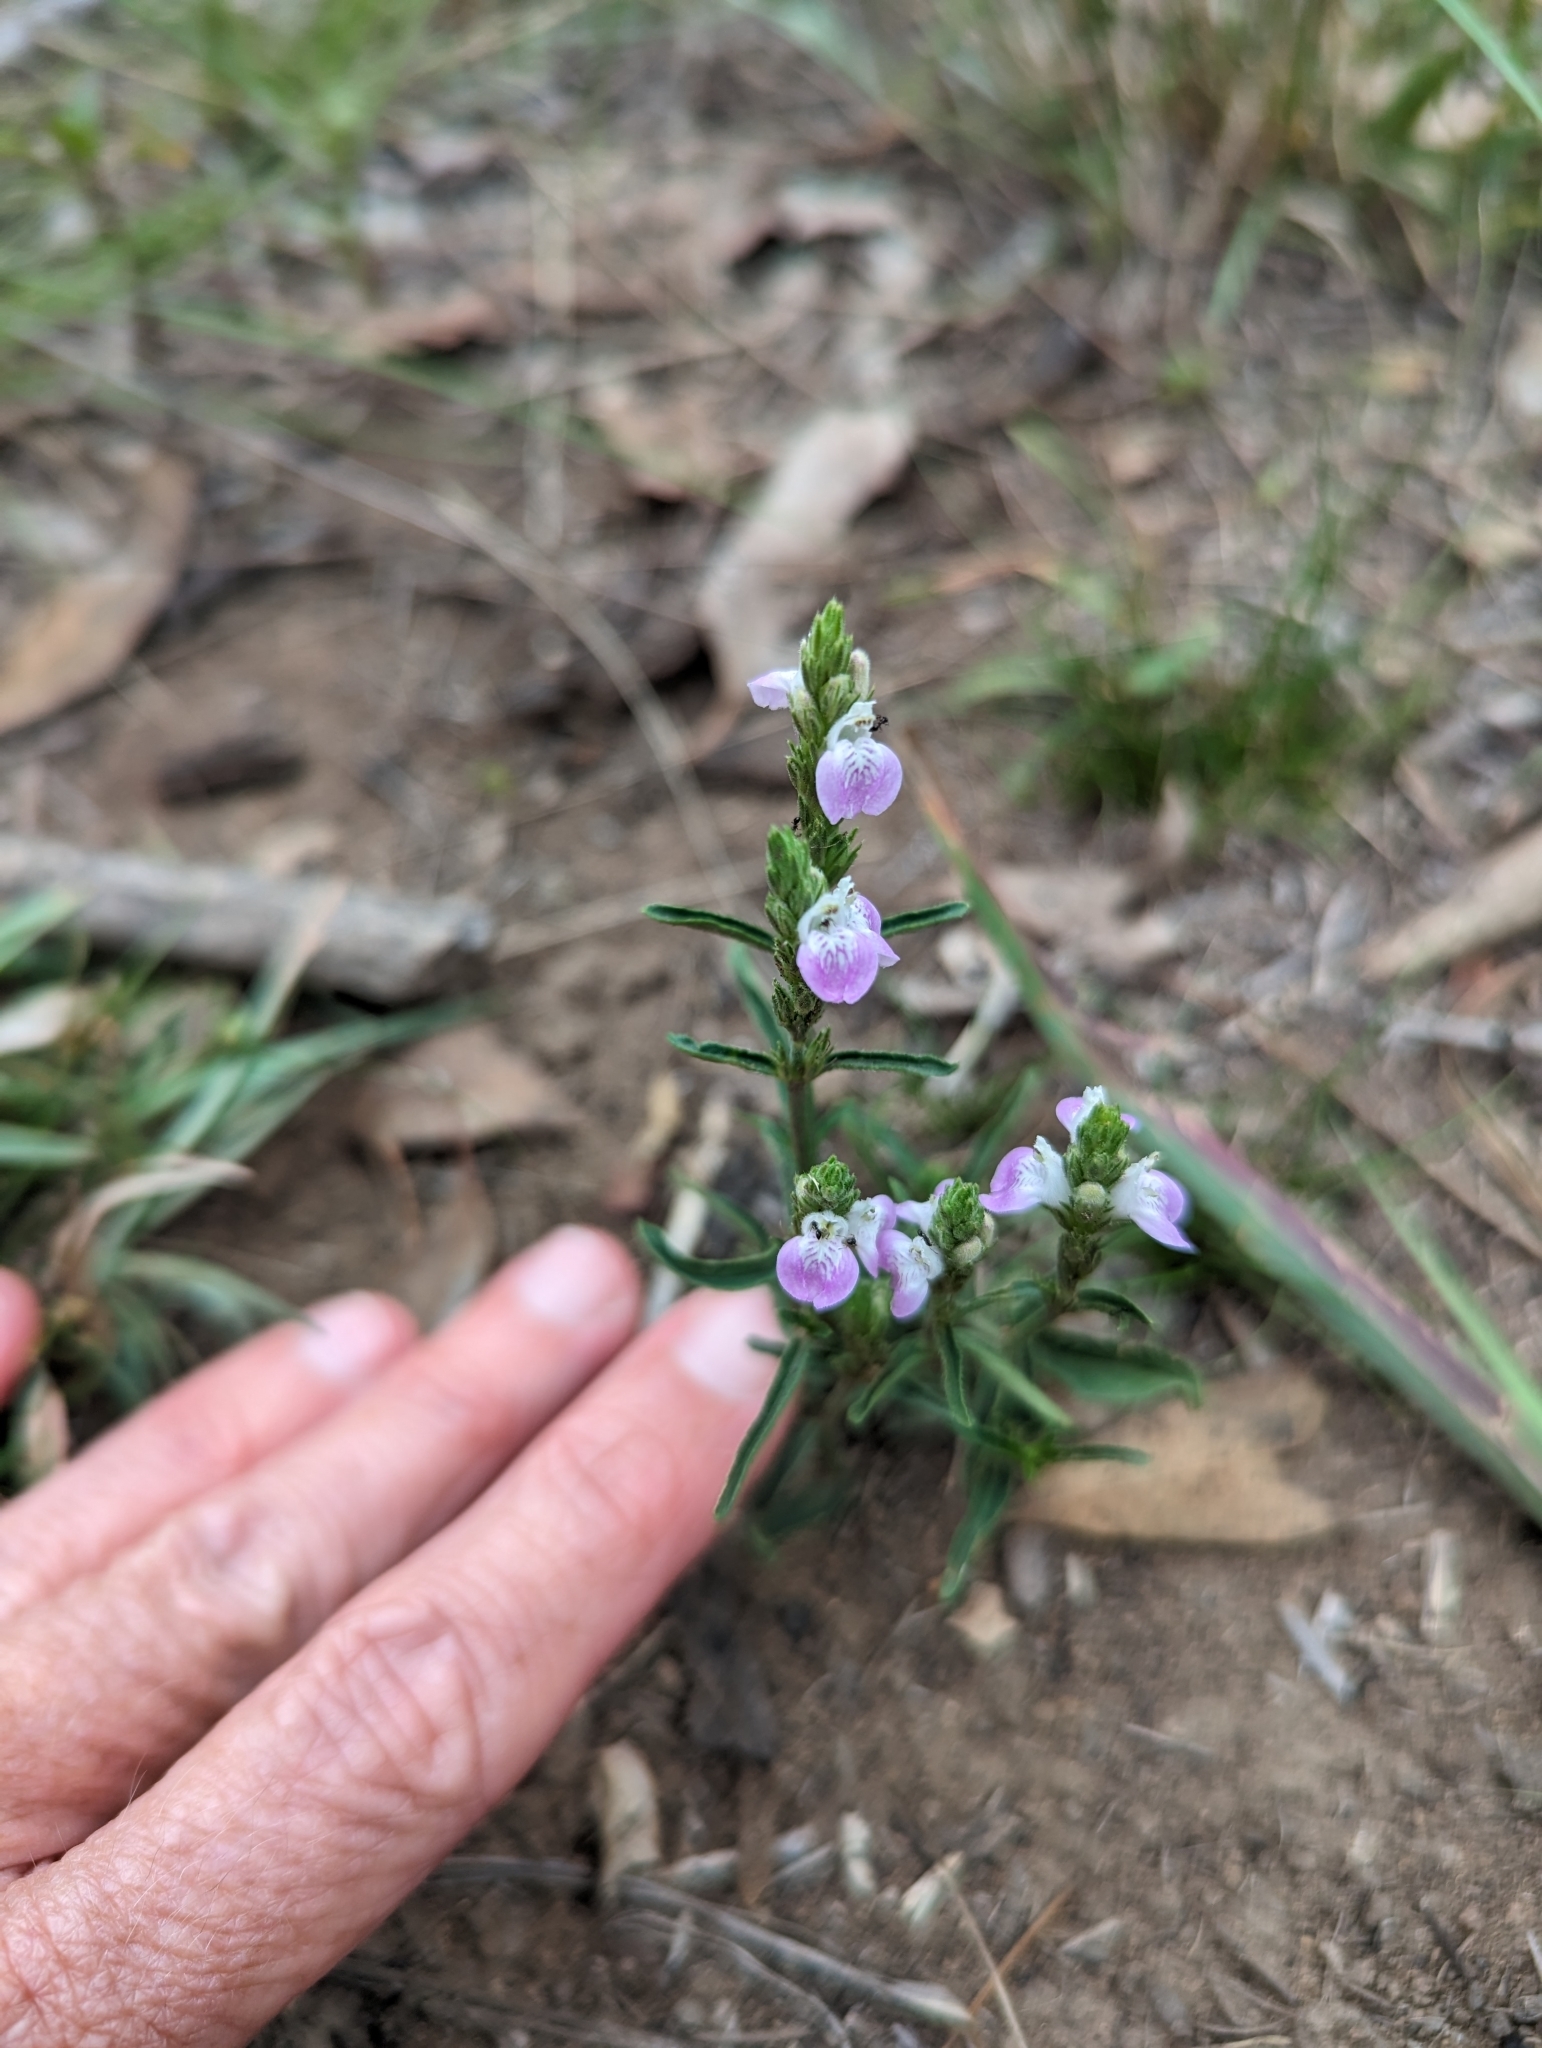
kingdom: Plantae
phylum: Tracheophyta
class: Magnoliopsida
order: Lamiales
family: Acanthaceae
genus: Rostellularia
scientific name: Rostellularia adscendens
